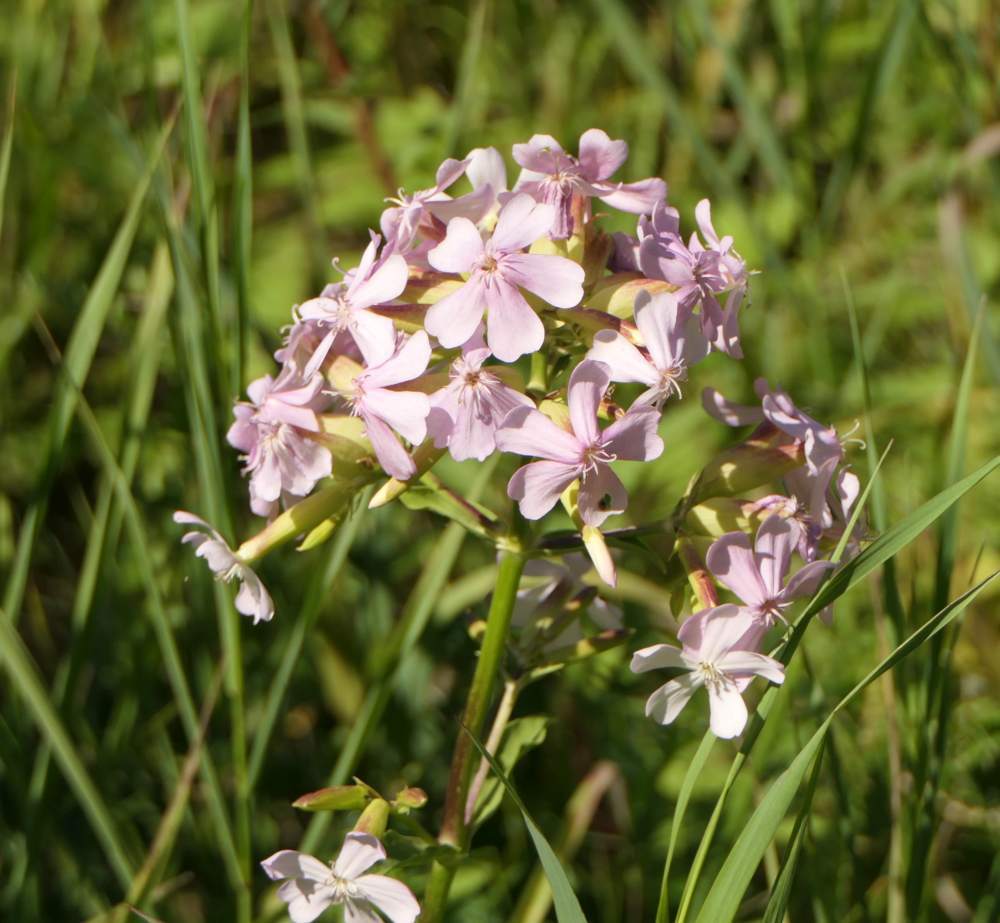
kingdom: Plantae
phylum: Tracheophyta
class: Magnoliopsida
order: Caryophyllales
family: Caryophyllaceae
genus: Saponaria
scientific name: Saponaria officinalis
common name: Soapwort
